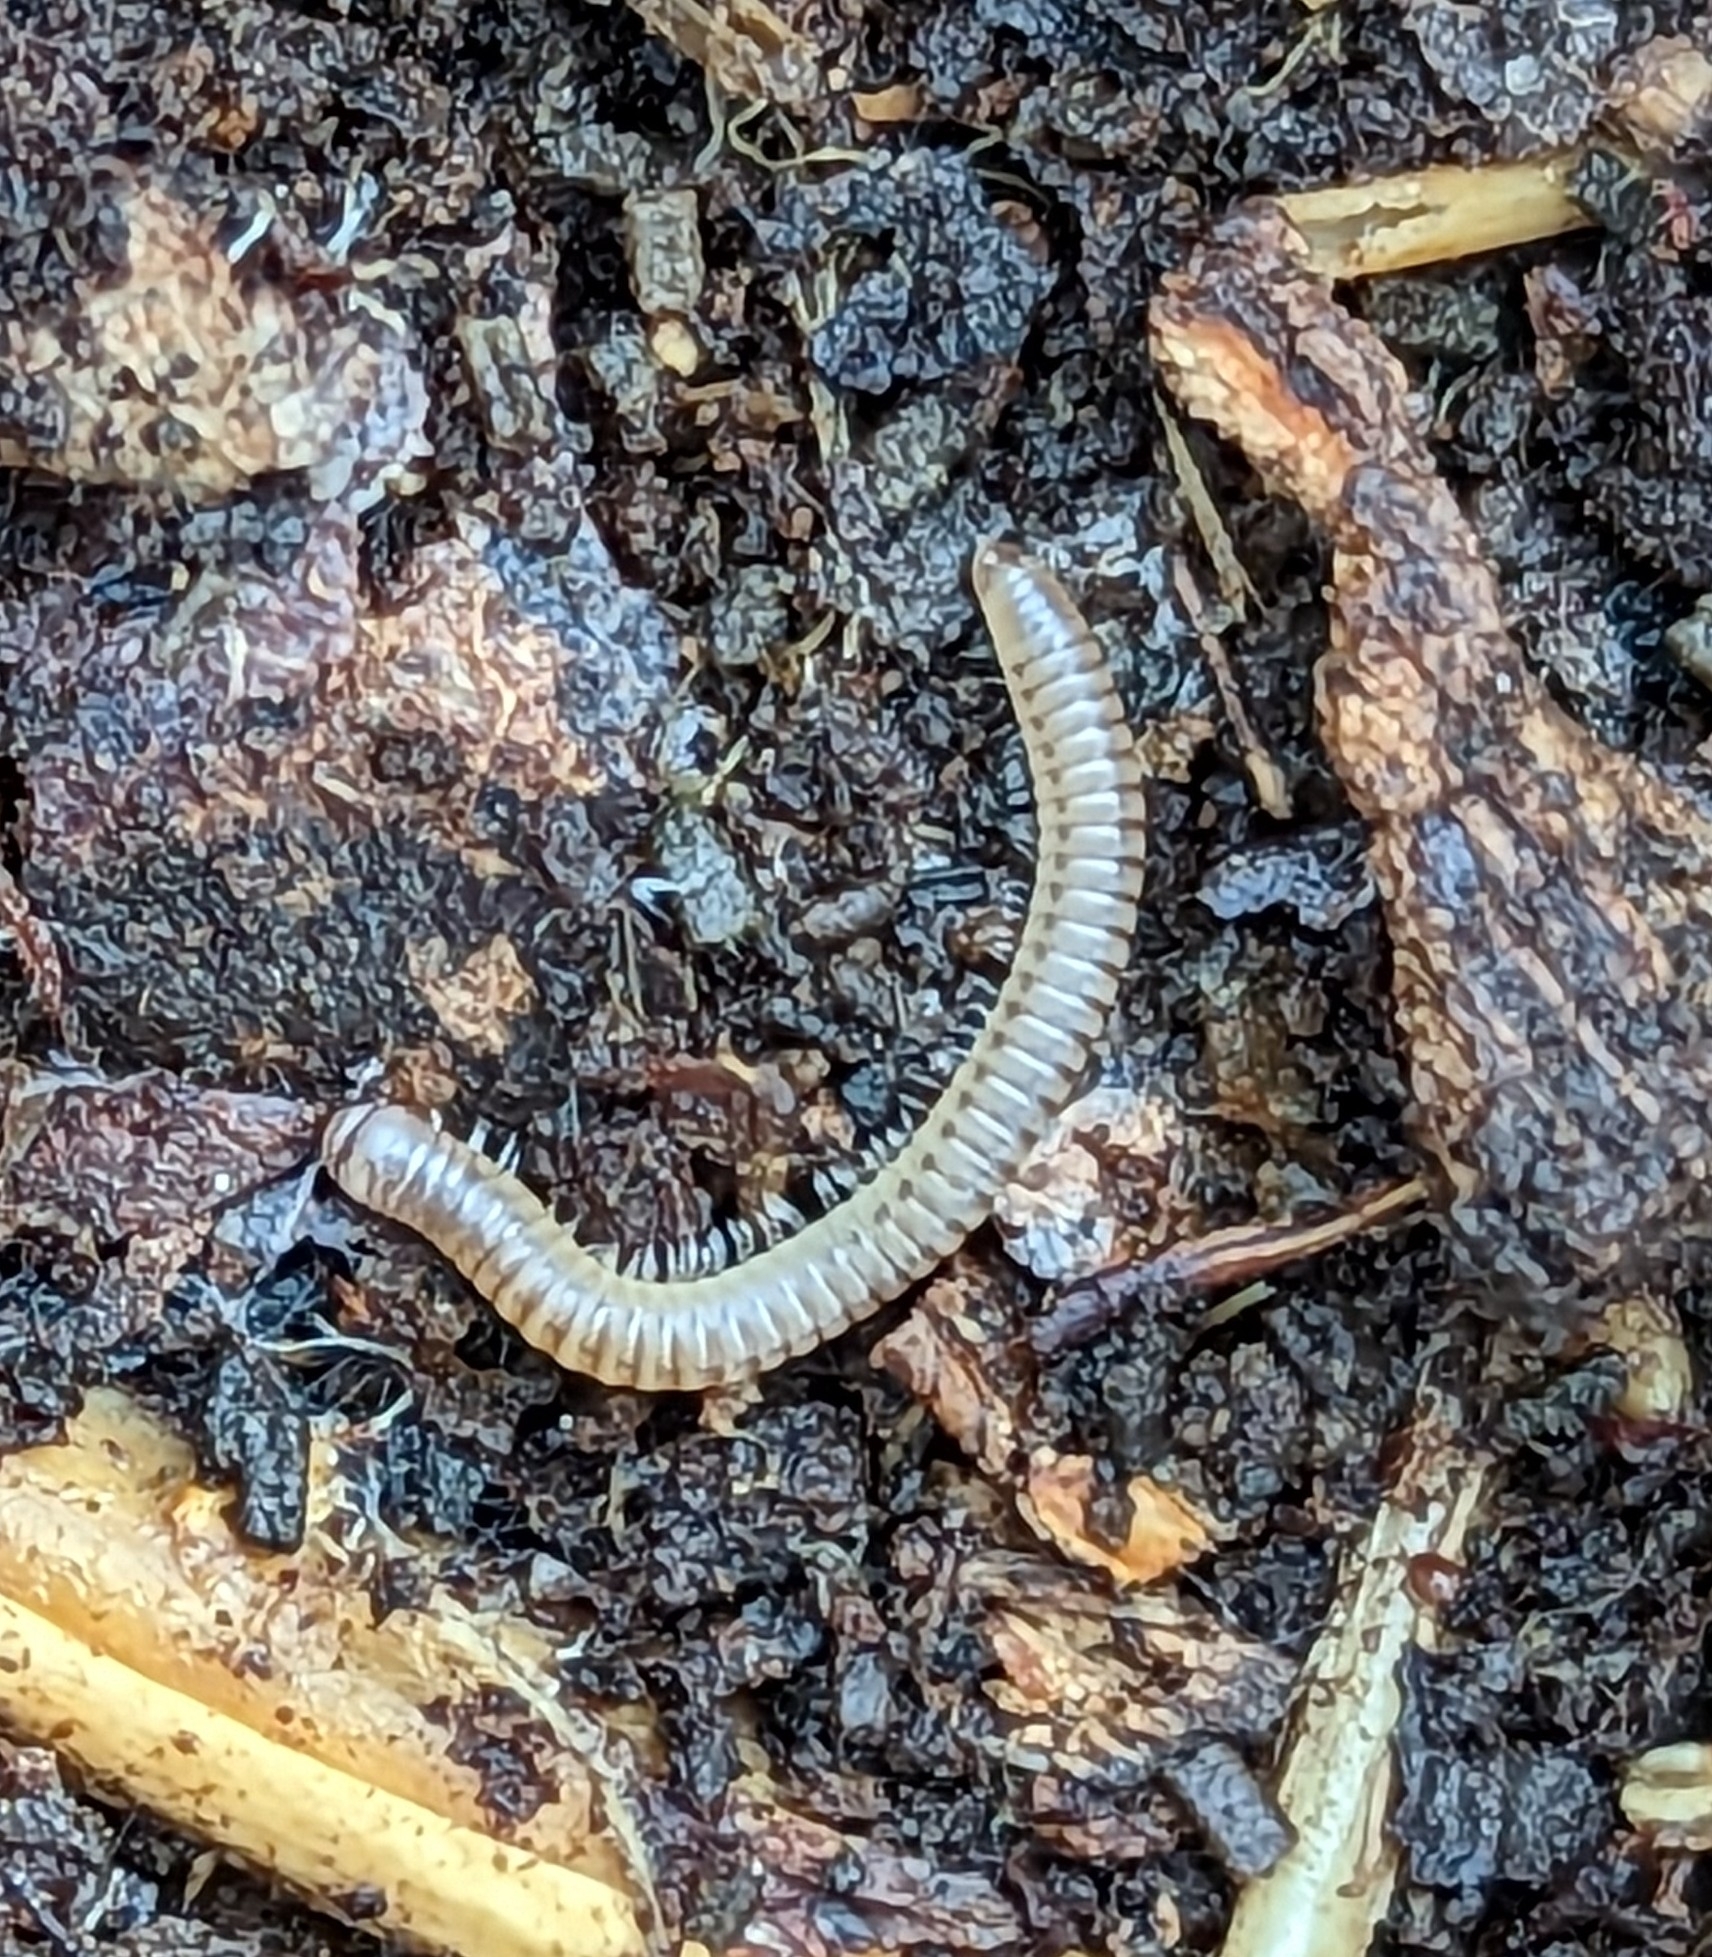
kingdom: Animalia
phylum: Arthropoda
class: Diplopoda
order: Julida
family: Julidae
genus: Cylindroiulus
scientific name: Cylindroiulus punctatus
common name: Blunt-tailed millipede
